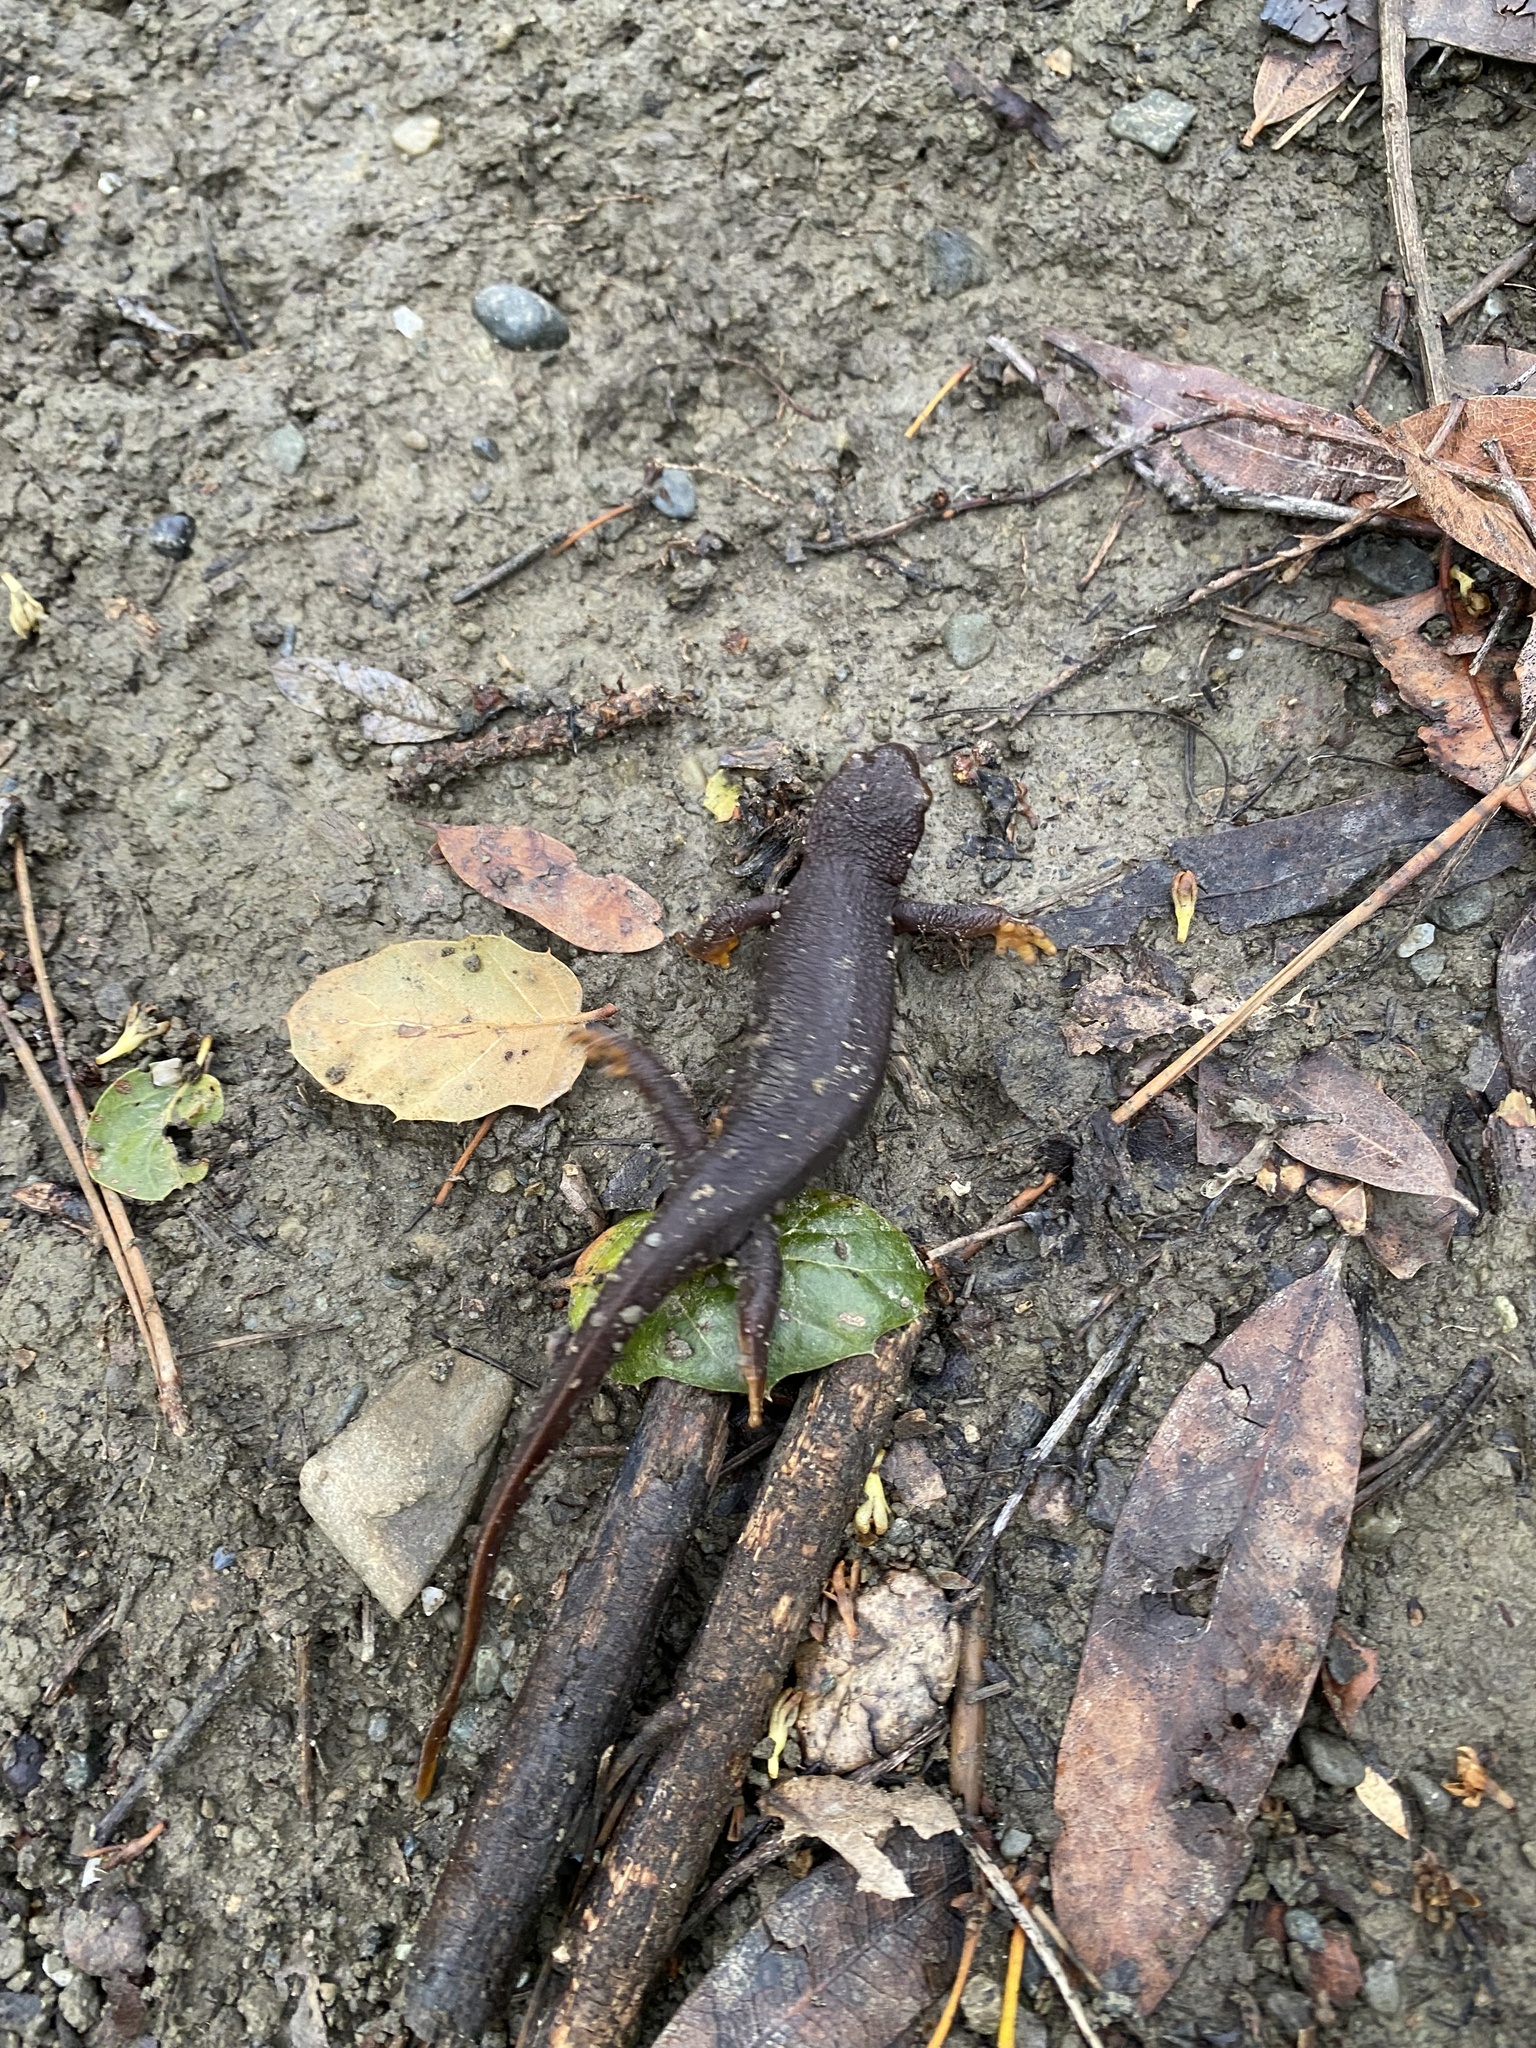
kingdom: Animalia
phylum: Chordata
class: Amphibia
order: Caudata
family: Salamandridae
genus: Taricha
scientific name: Taricha torosa
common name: California newt
